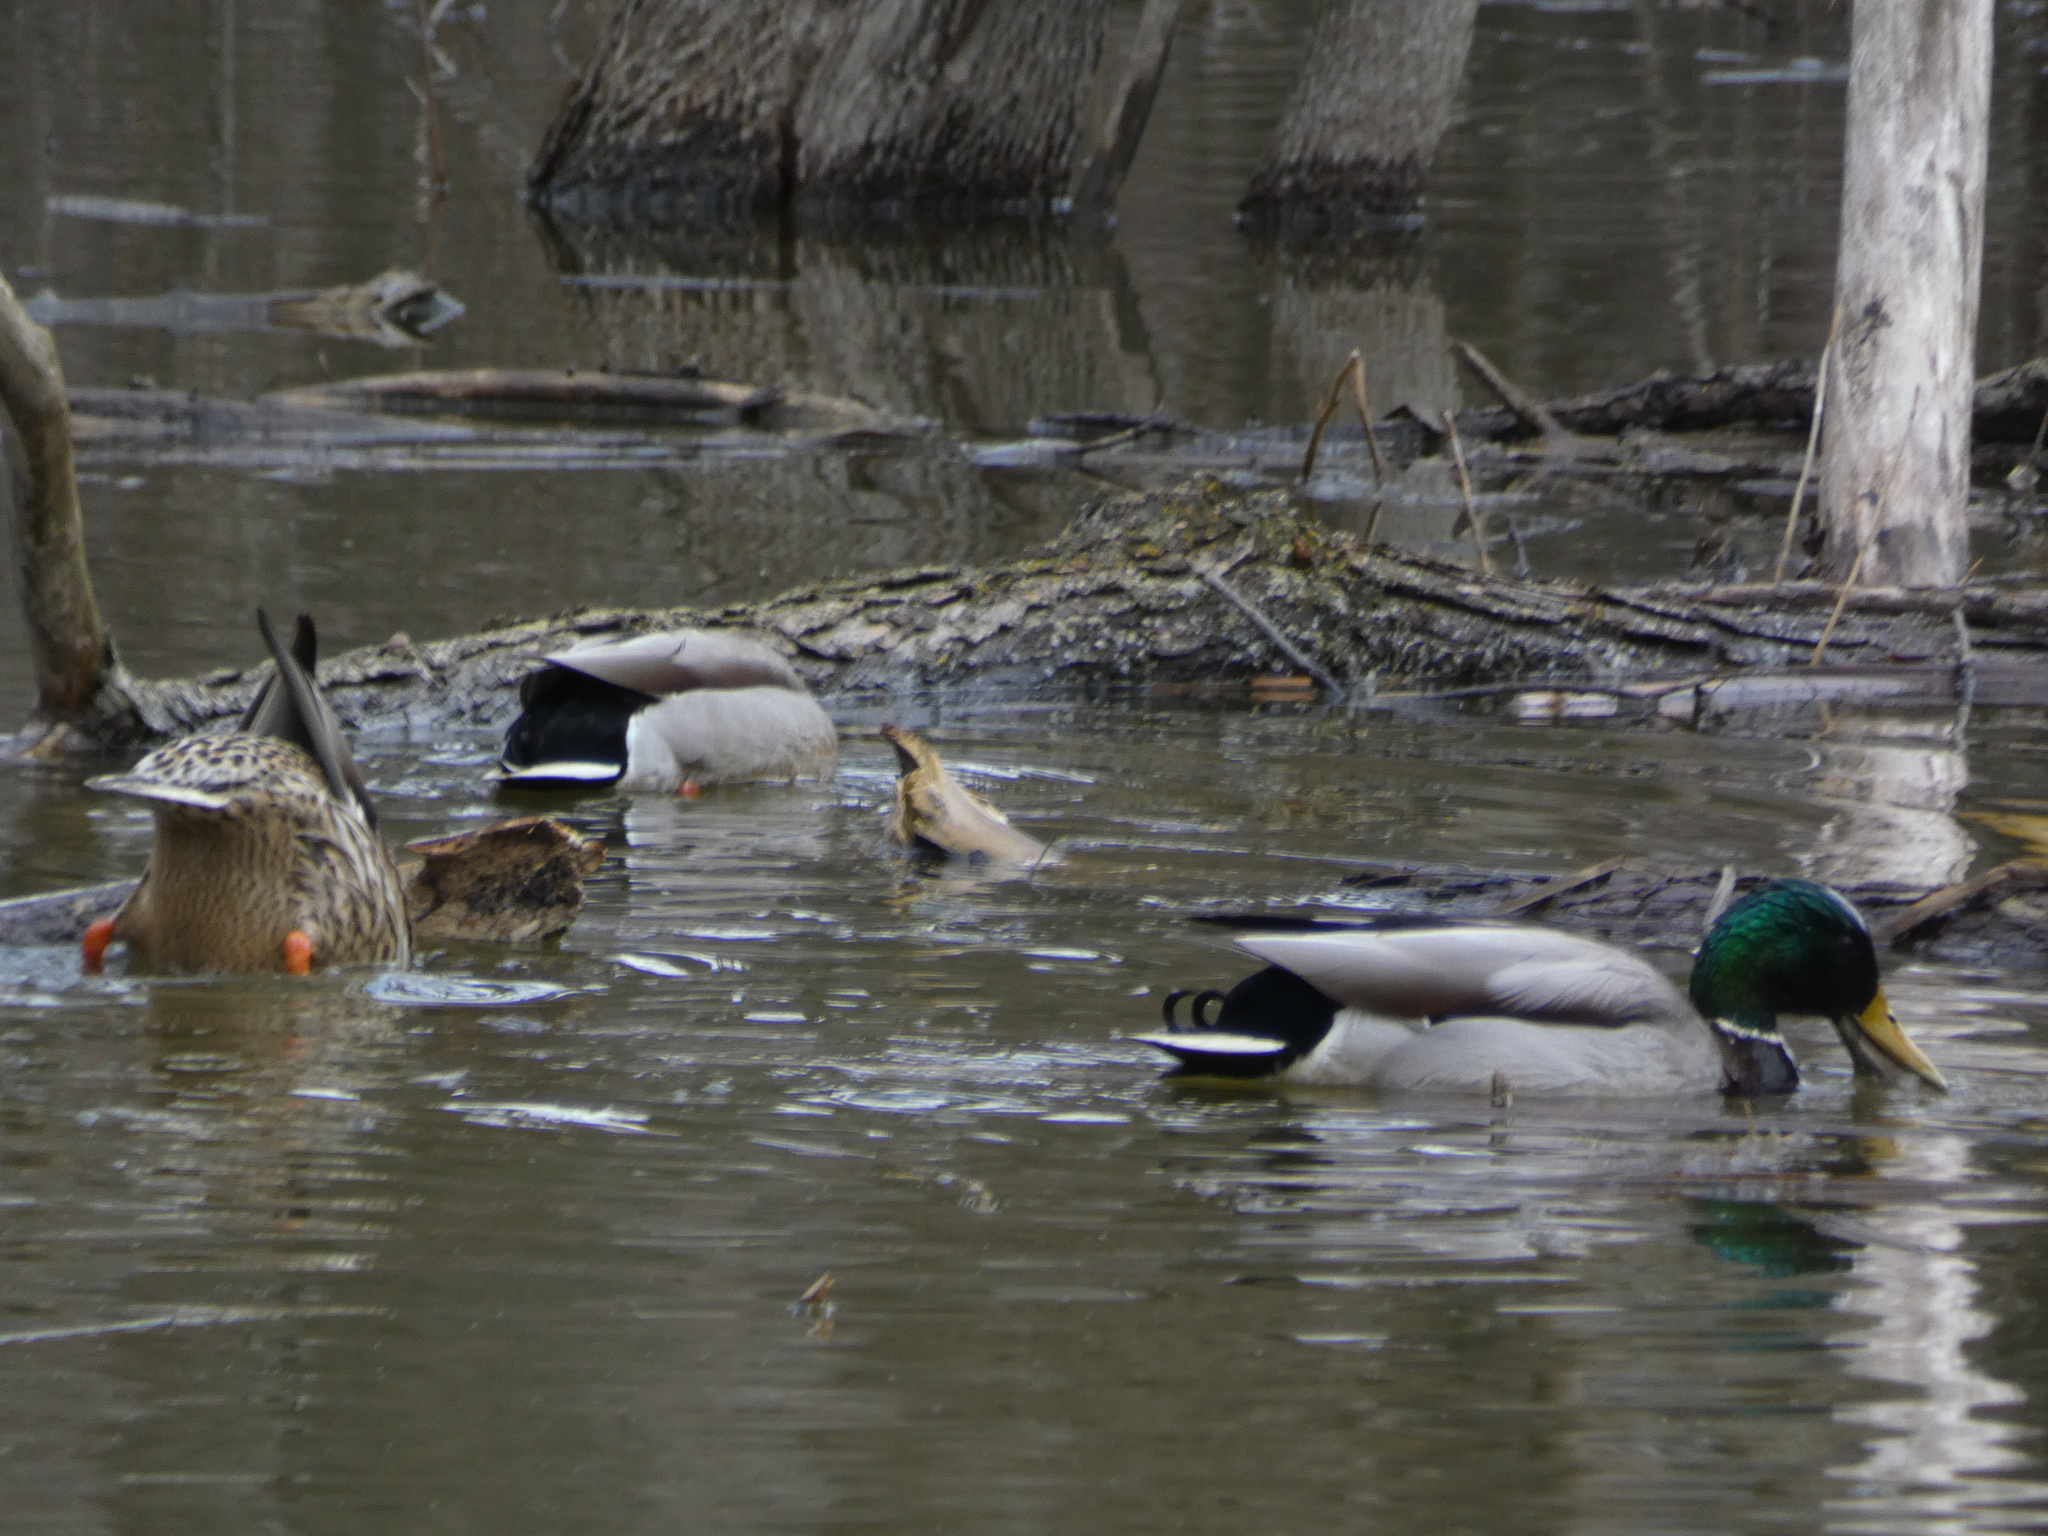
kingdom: Animalia
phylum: Chordata
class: Aves
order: Anseriformes
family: Anatidae
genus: Anas
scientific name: Anas platyrhynchos
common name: Mallard
